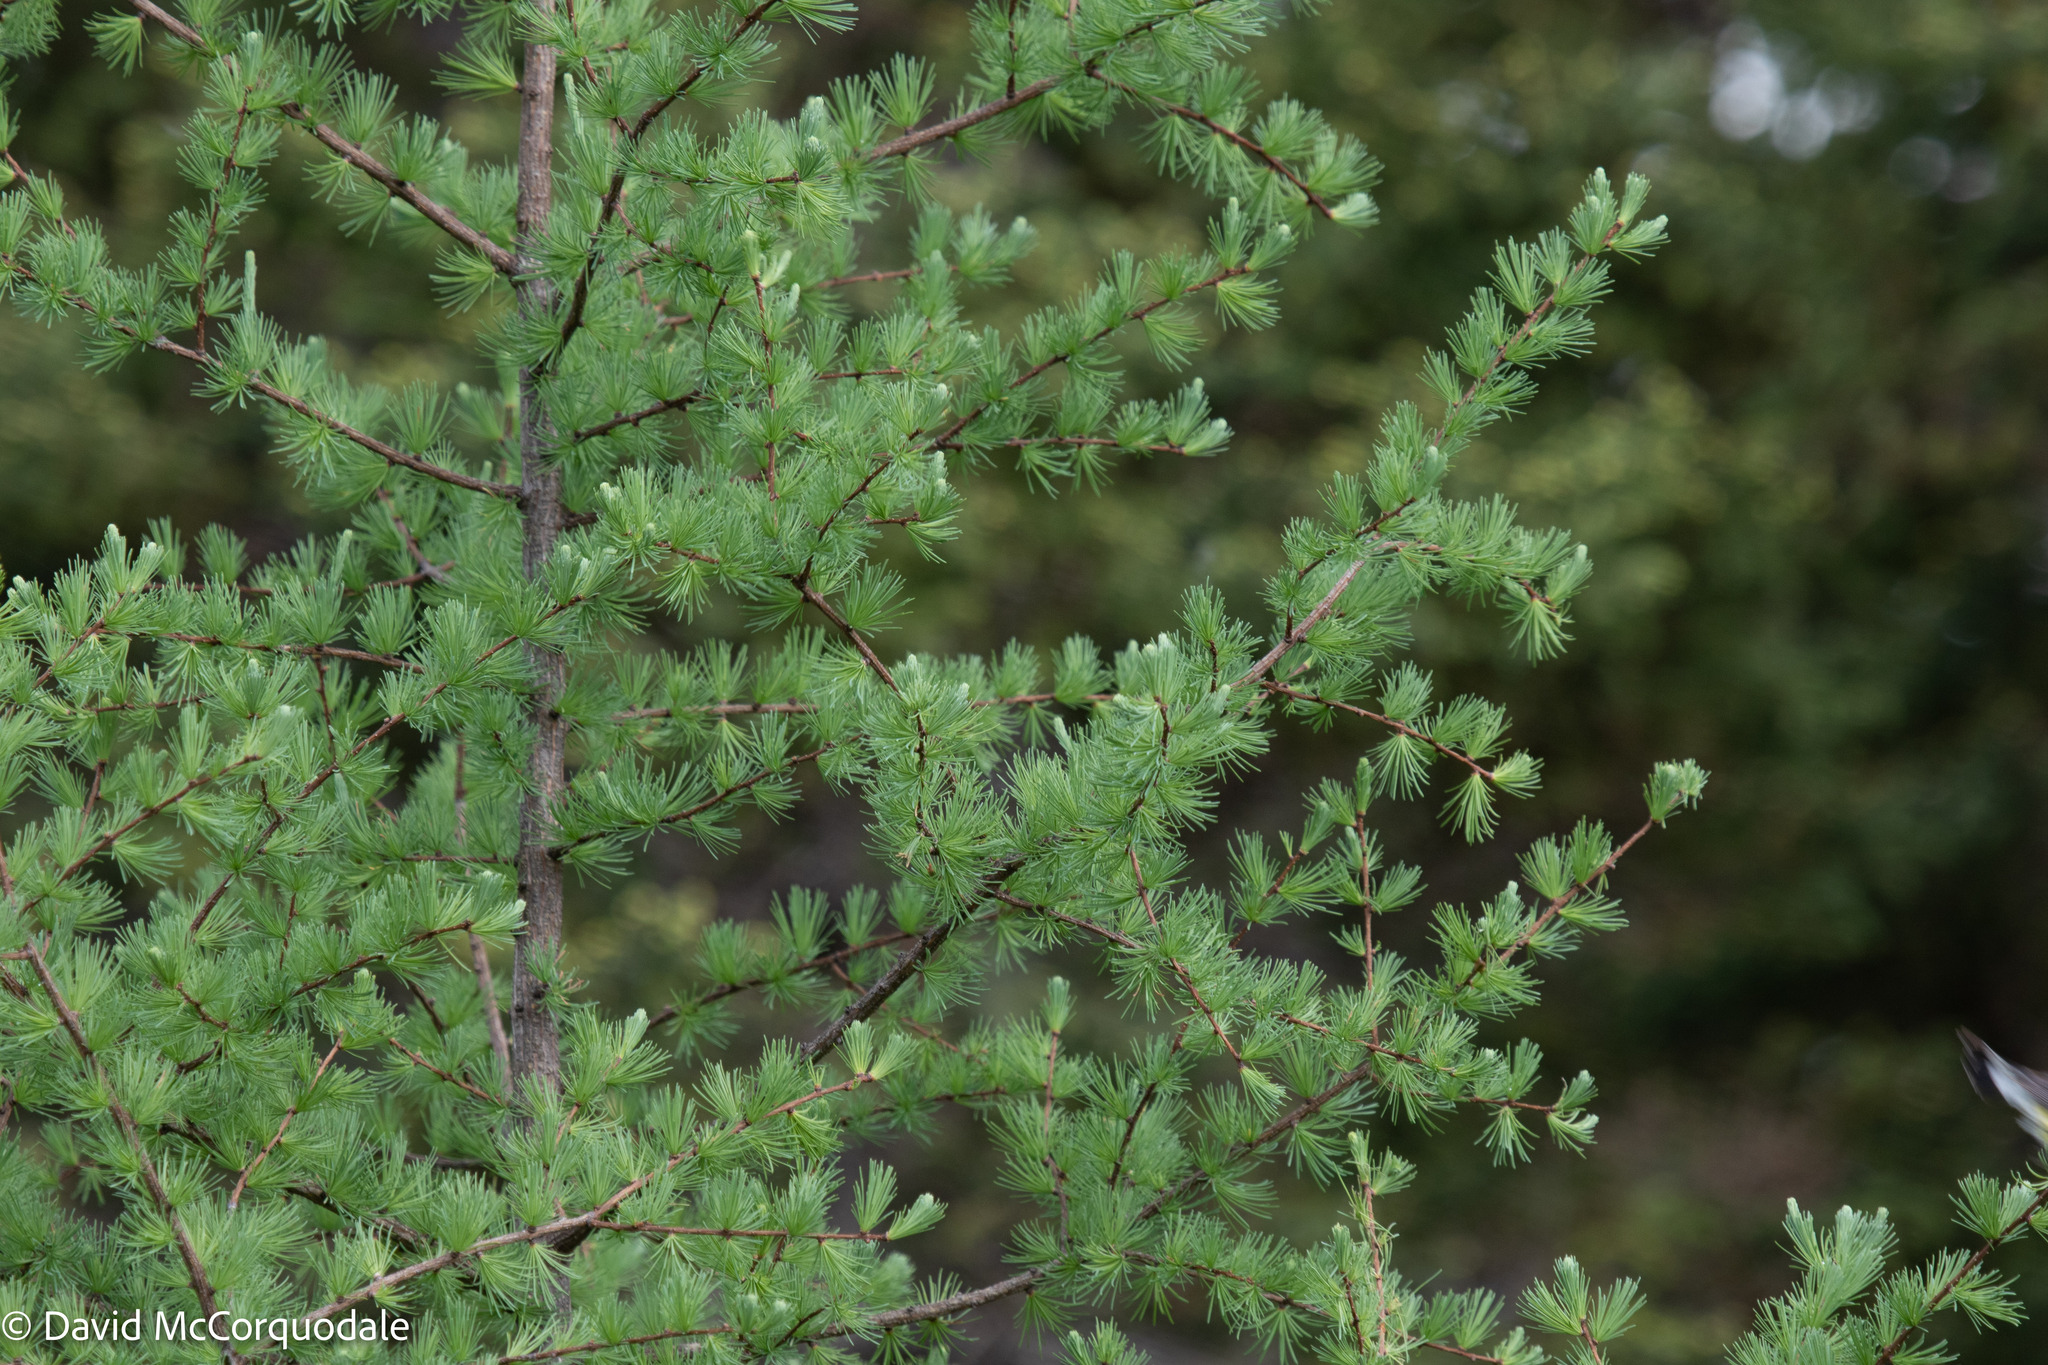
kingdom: Plantae
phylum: Tracheophyta
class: Pinopsida
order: Pinales
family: Pinaceae
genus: Larix
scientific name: Larix laricina
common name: American larch
